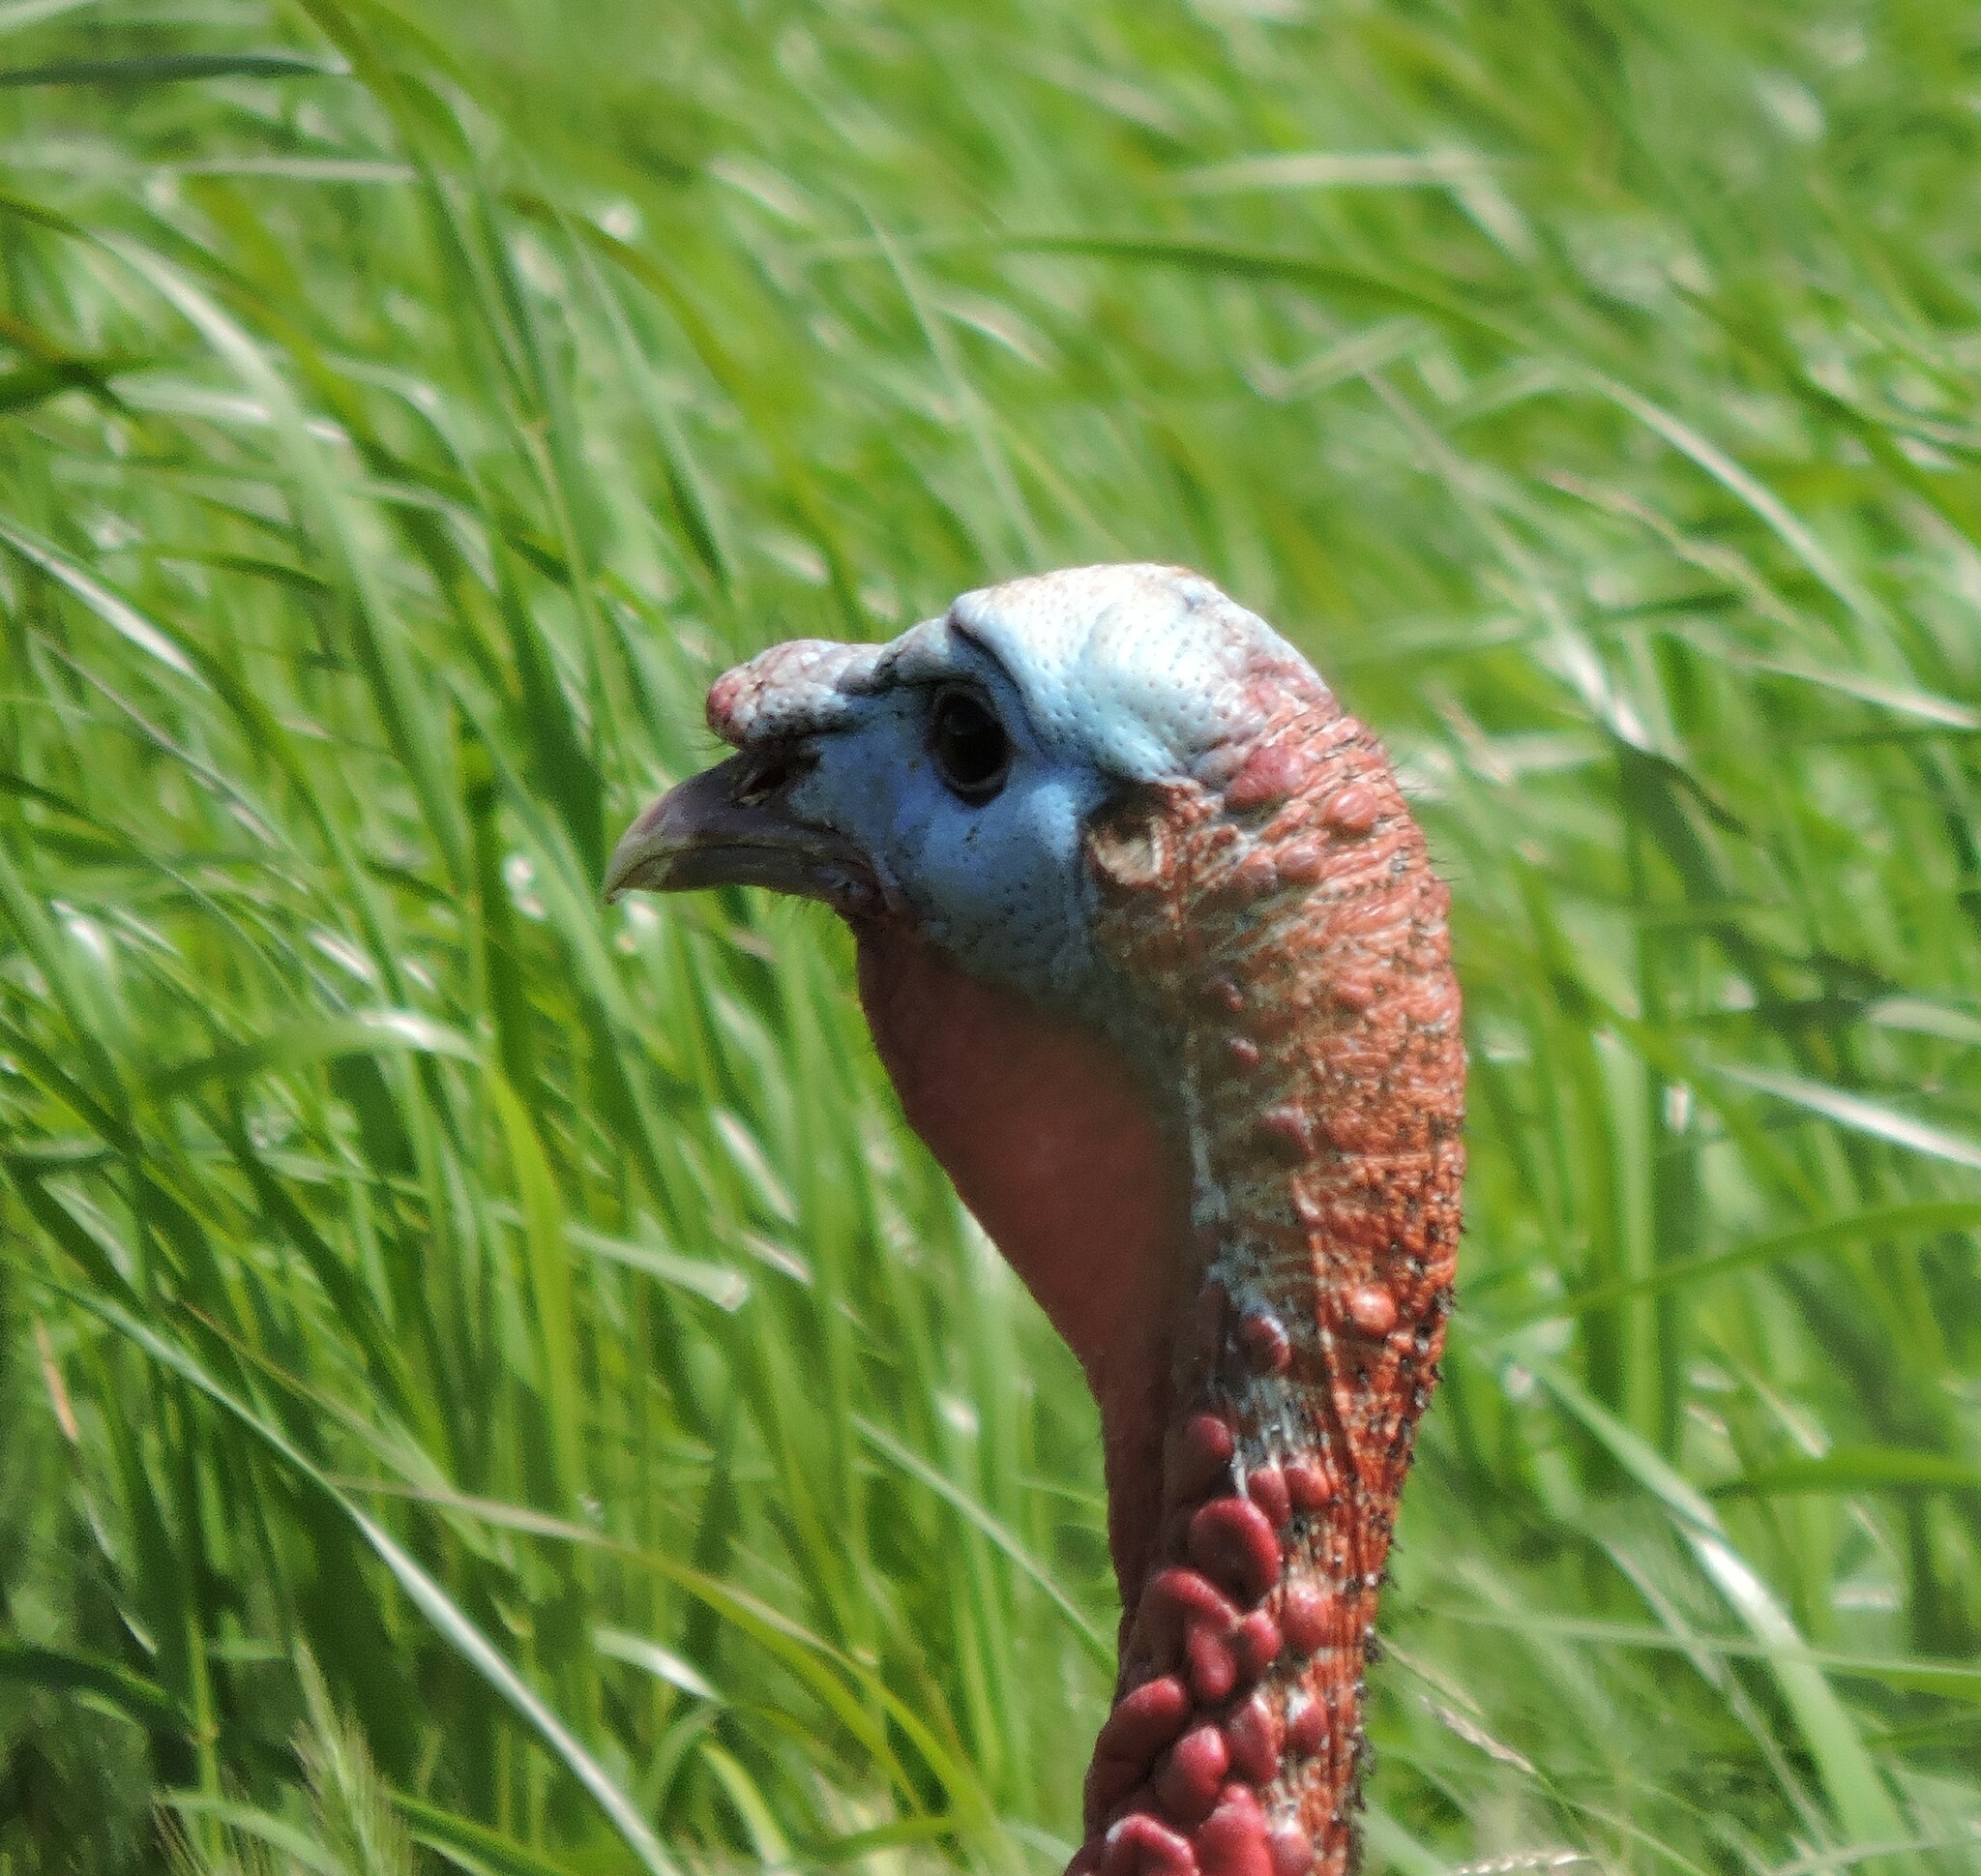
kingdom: Animalia
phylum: Chordata
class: Aves
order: Galliformes
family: Phasianidae
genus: Meleagris
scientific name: Meleagris gallopavo
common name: Wild turkey
